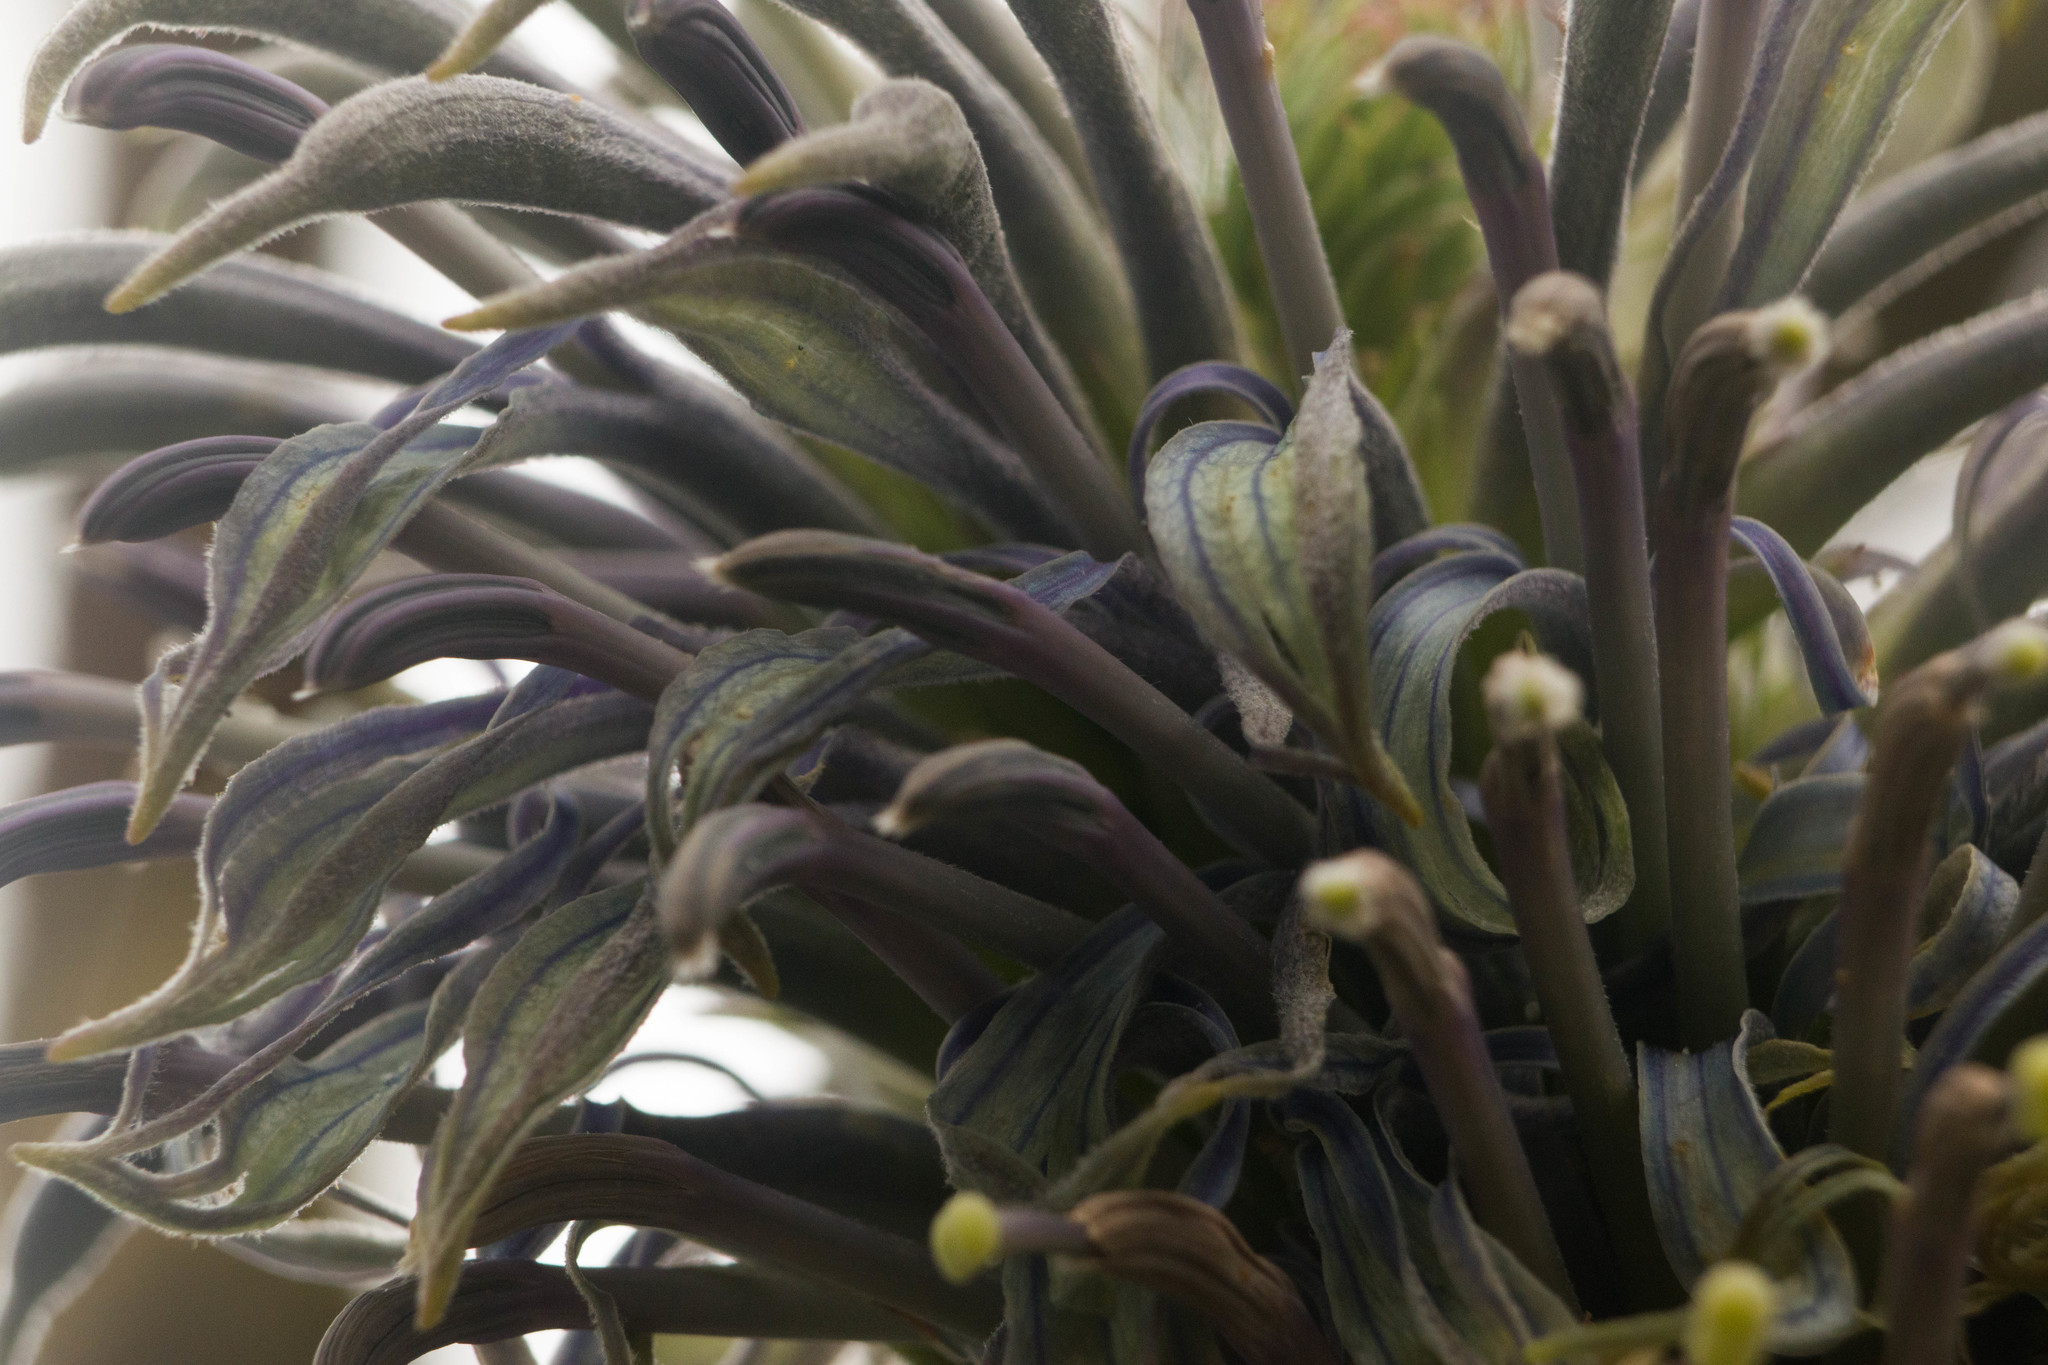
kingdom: Plantae
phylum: Tracheophyta
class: Magnoliopsida
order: Asterales
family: Campanulaceae
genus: Lobelia
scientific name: Lobelia yuccoides
